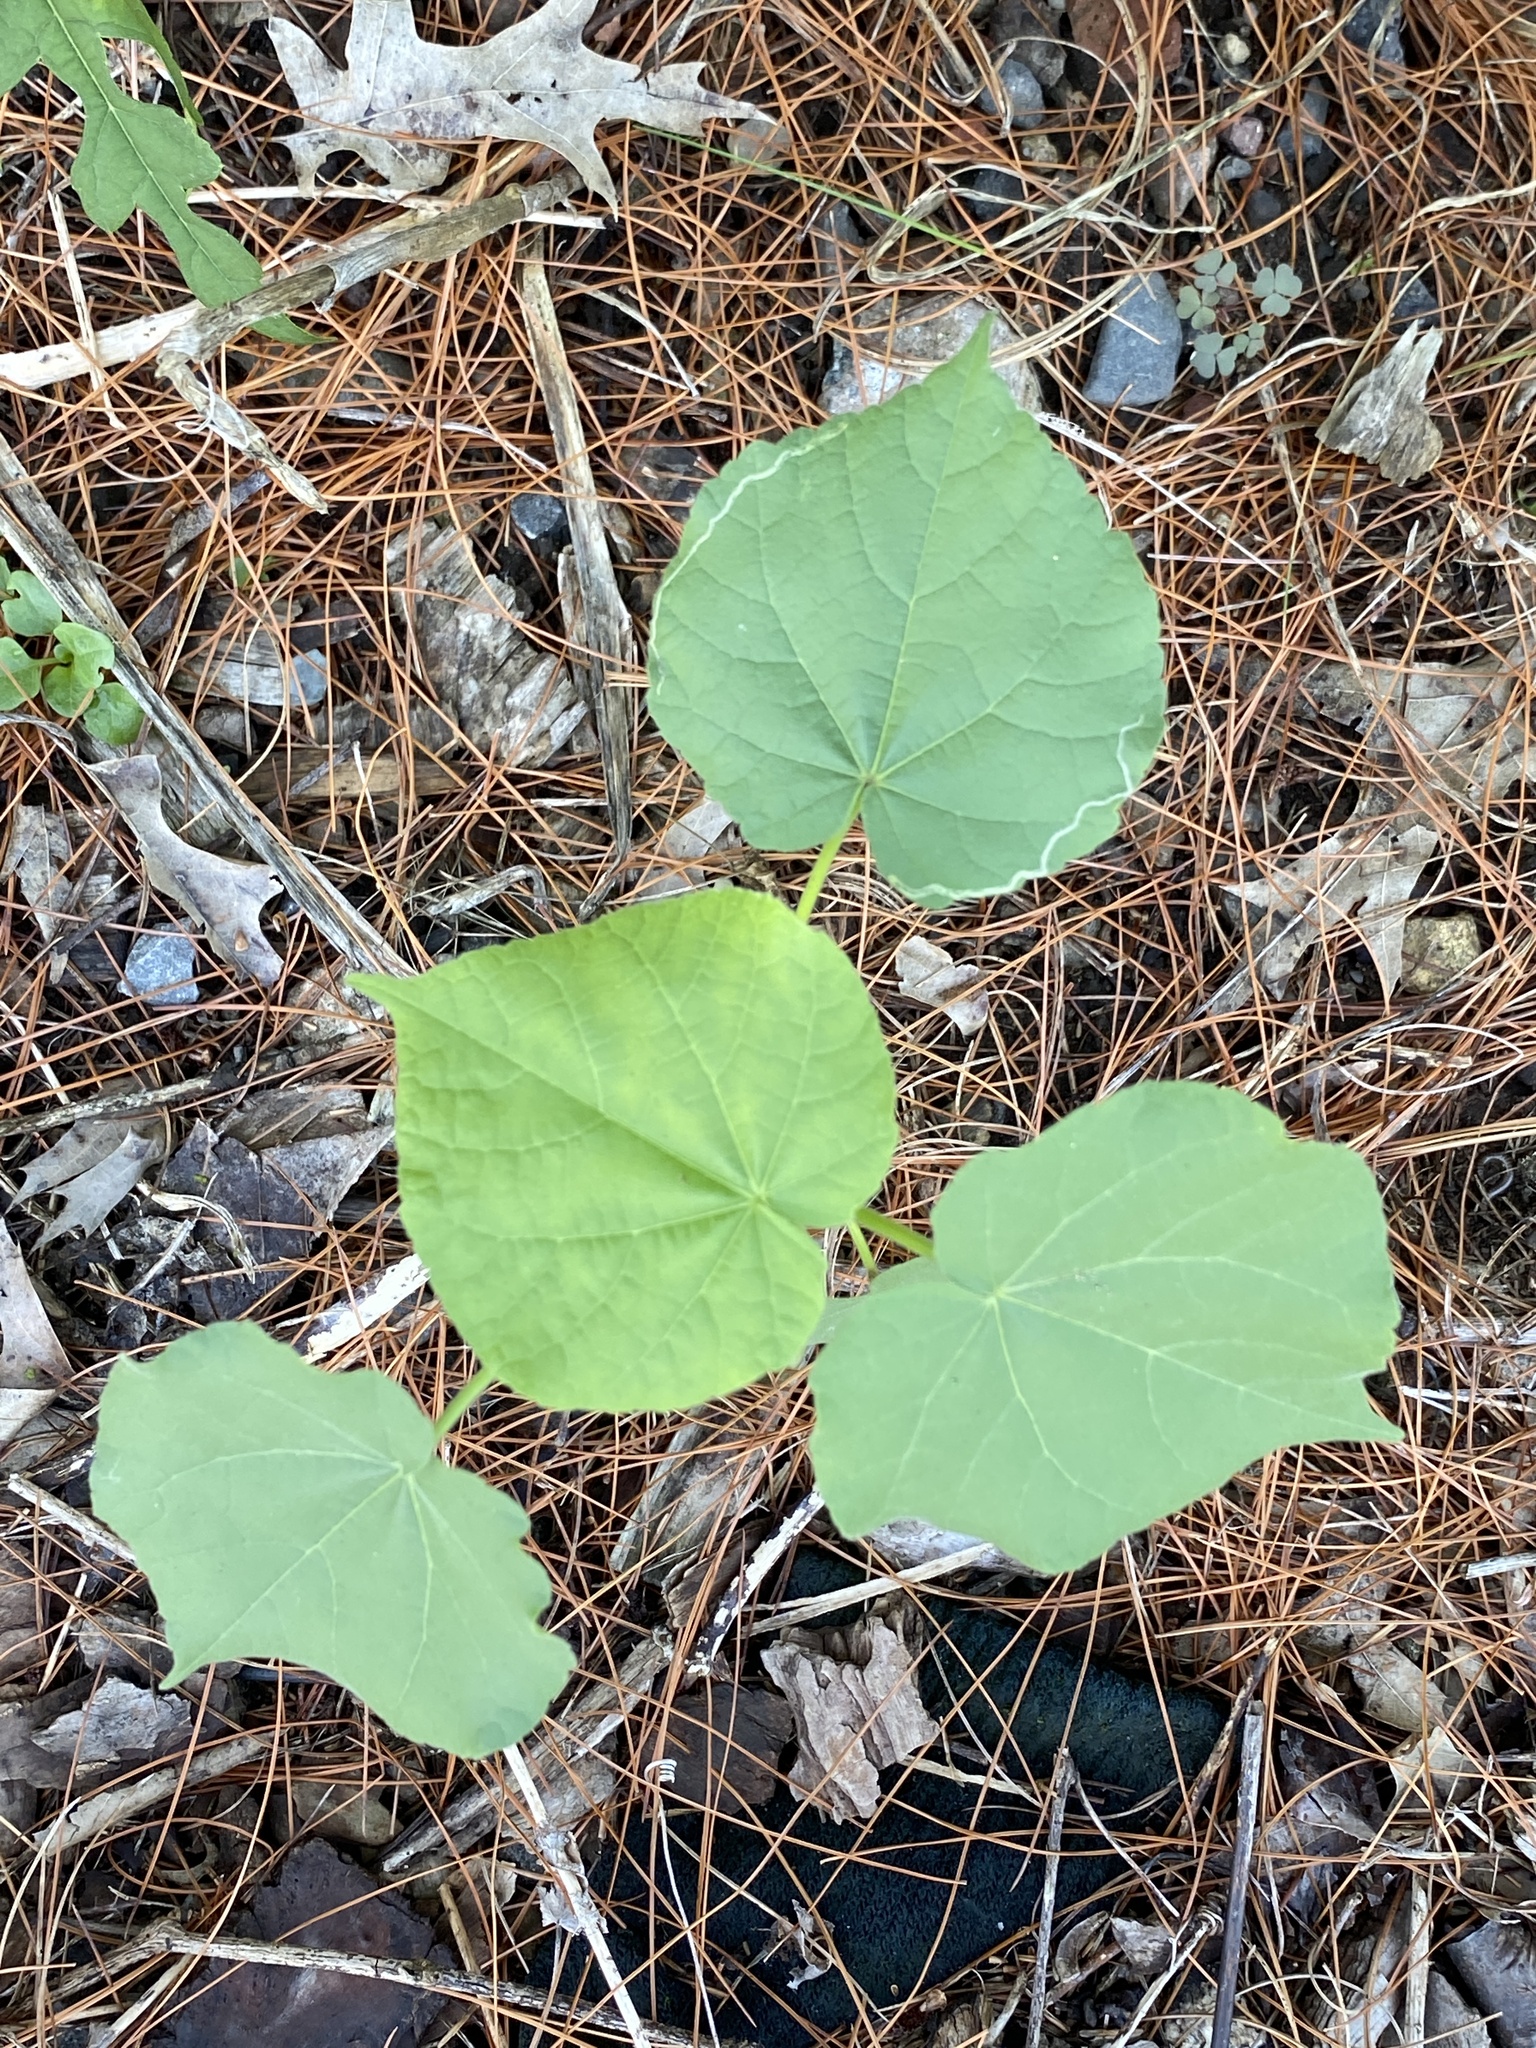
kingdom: Plantae
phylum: Tracheophyta
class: Magnoliopsida
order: Malvales
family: Malvaceae
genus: Abutilon
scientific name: Abutilon theophrasti
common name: Velvetleaf
